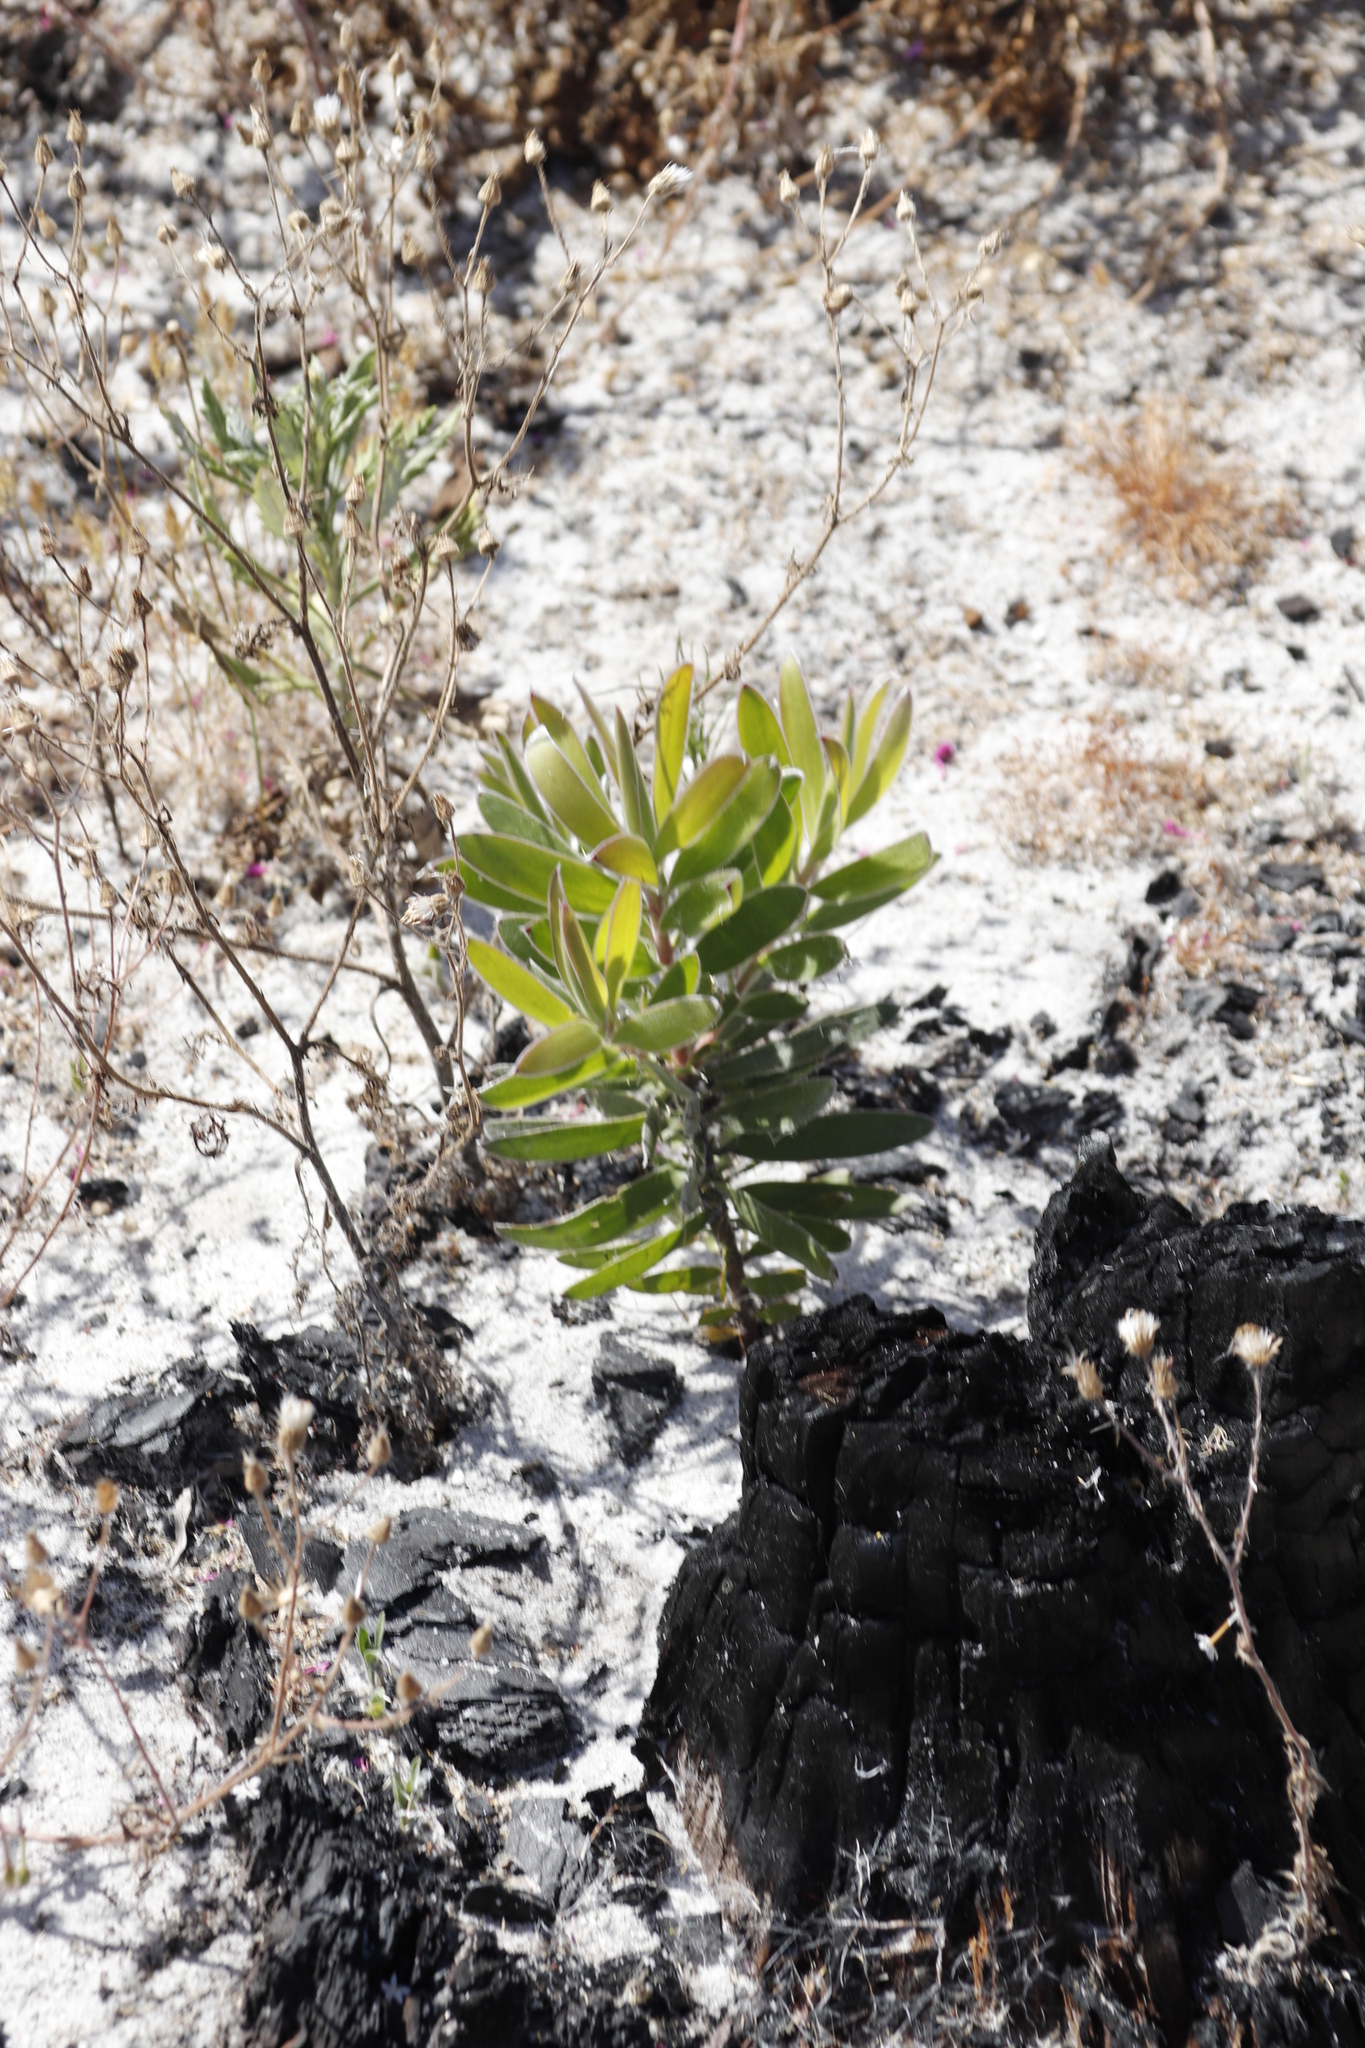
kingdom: Plantae
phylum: Tracheophyta
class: Magnoliopsida
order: Proteales
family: Proteaceae
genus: Leucadendron
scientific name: Leucadendron laureolum
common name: Golden sunshinebush
